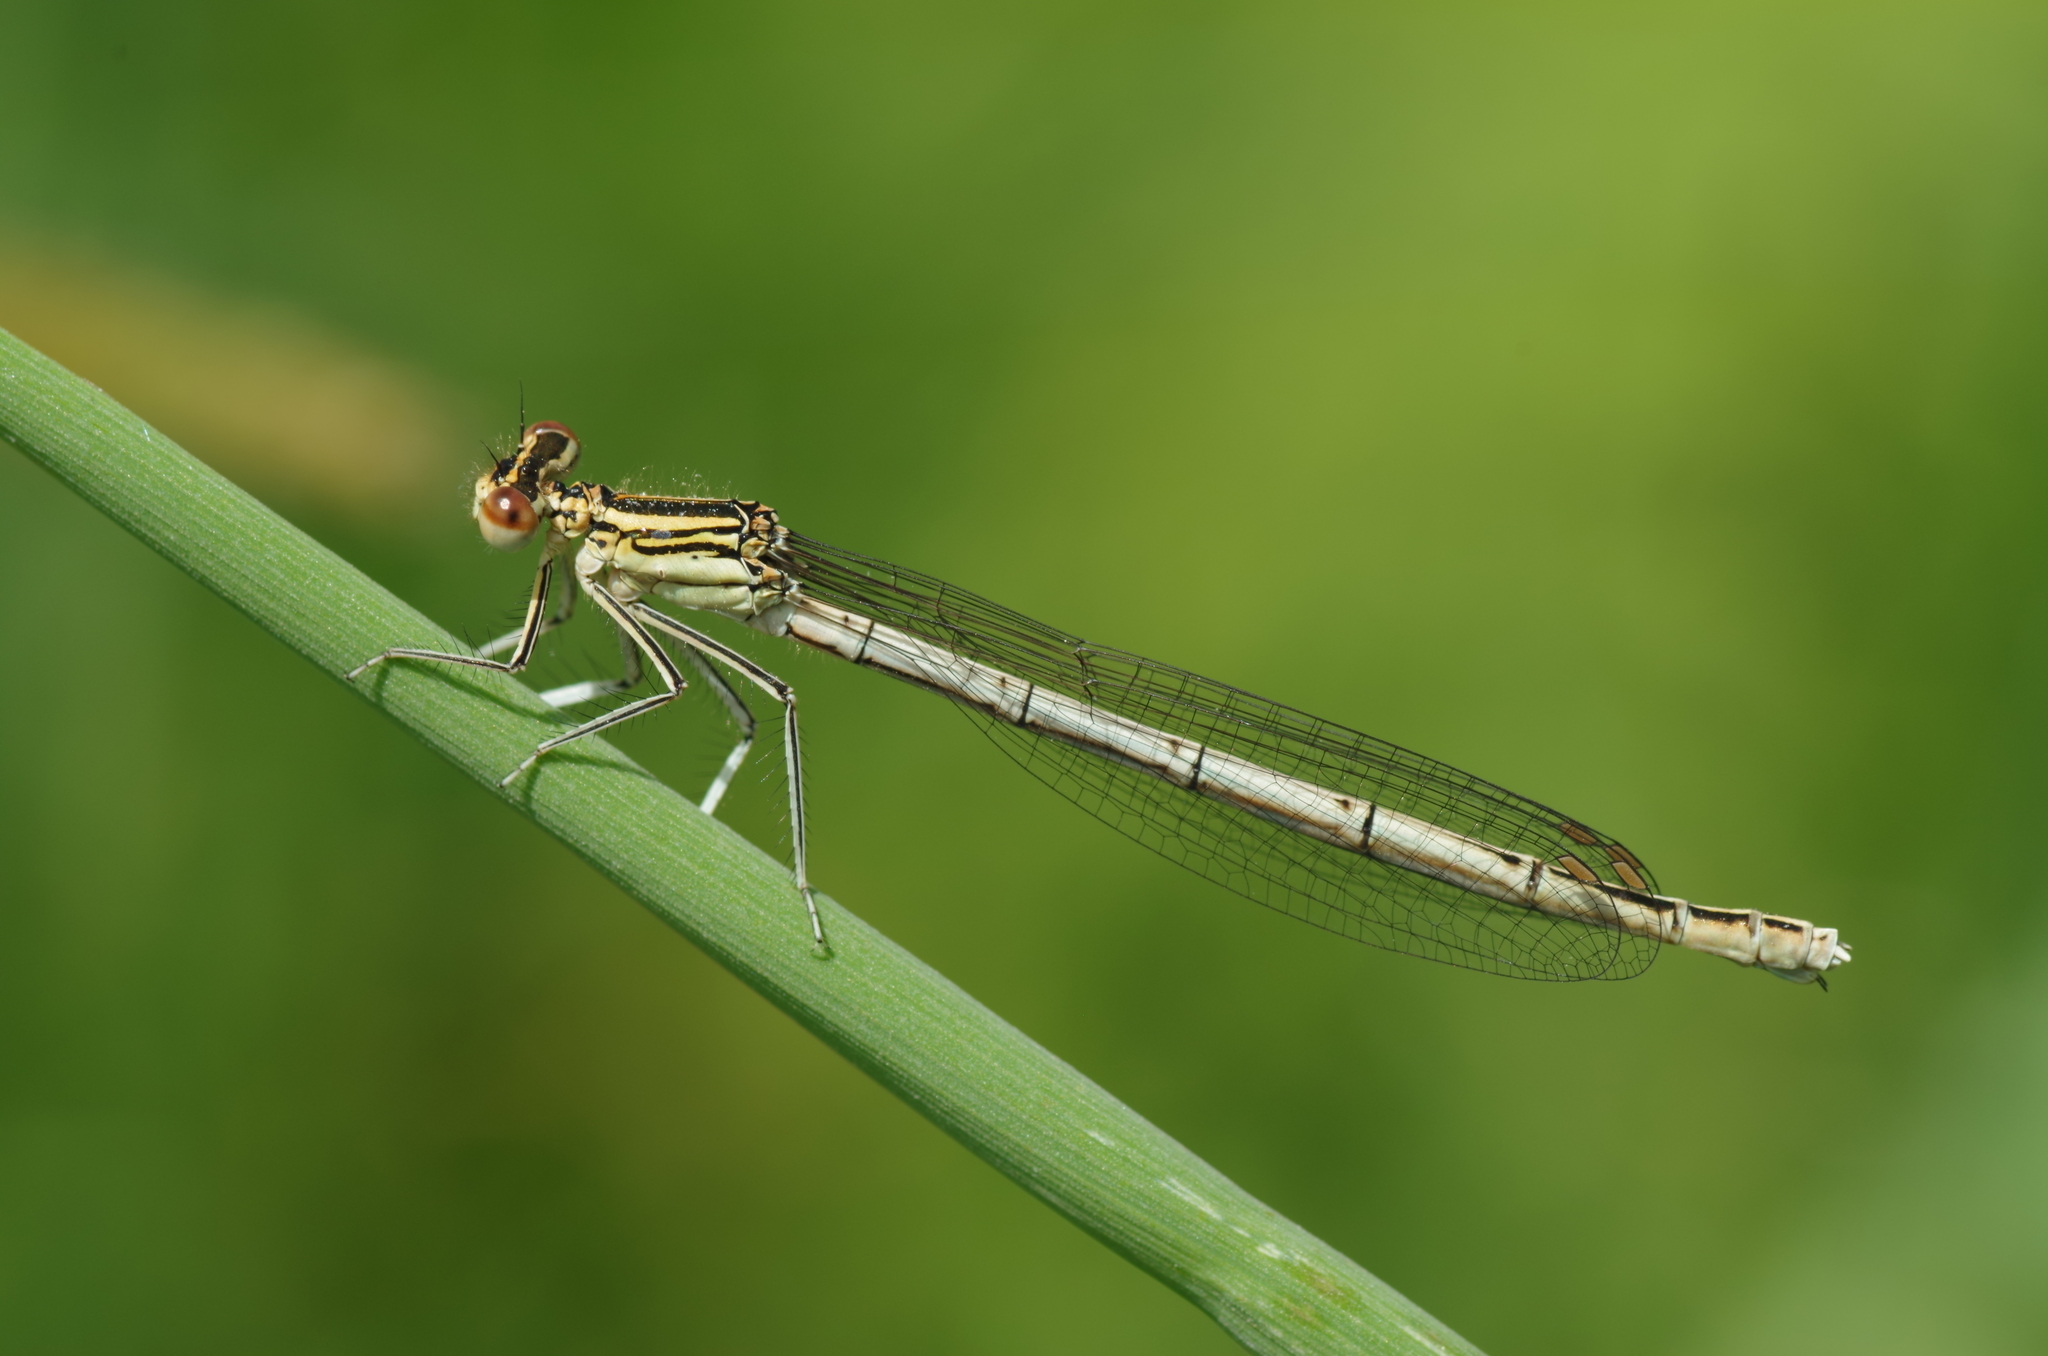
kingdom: Animalia
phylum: Arthropoda
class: Insecta
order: Odonata
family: Platycnemididae
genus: Platycnemis
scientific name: Platycnemis pennipes
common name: White-legged damselfly
